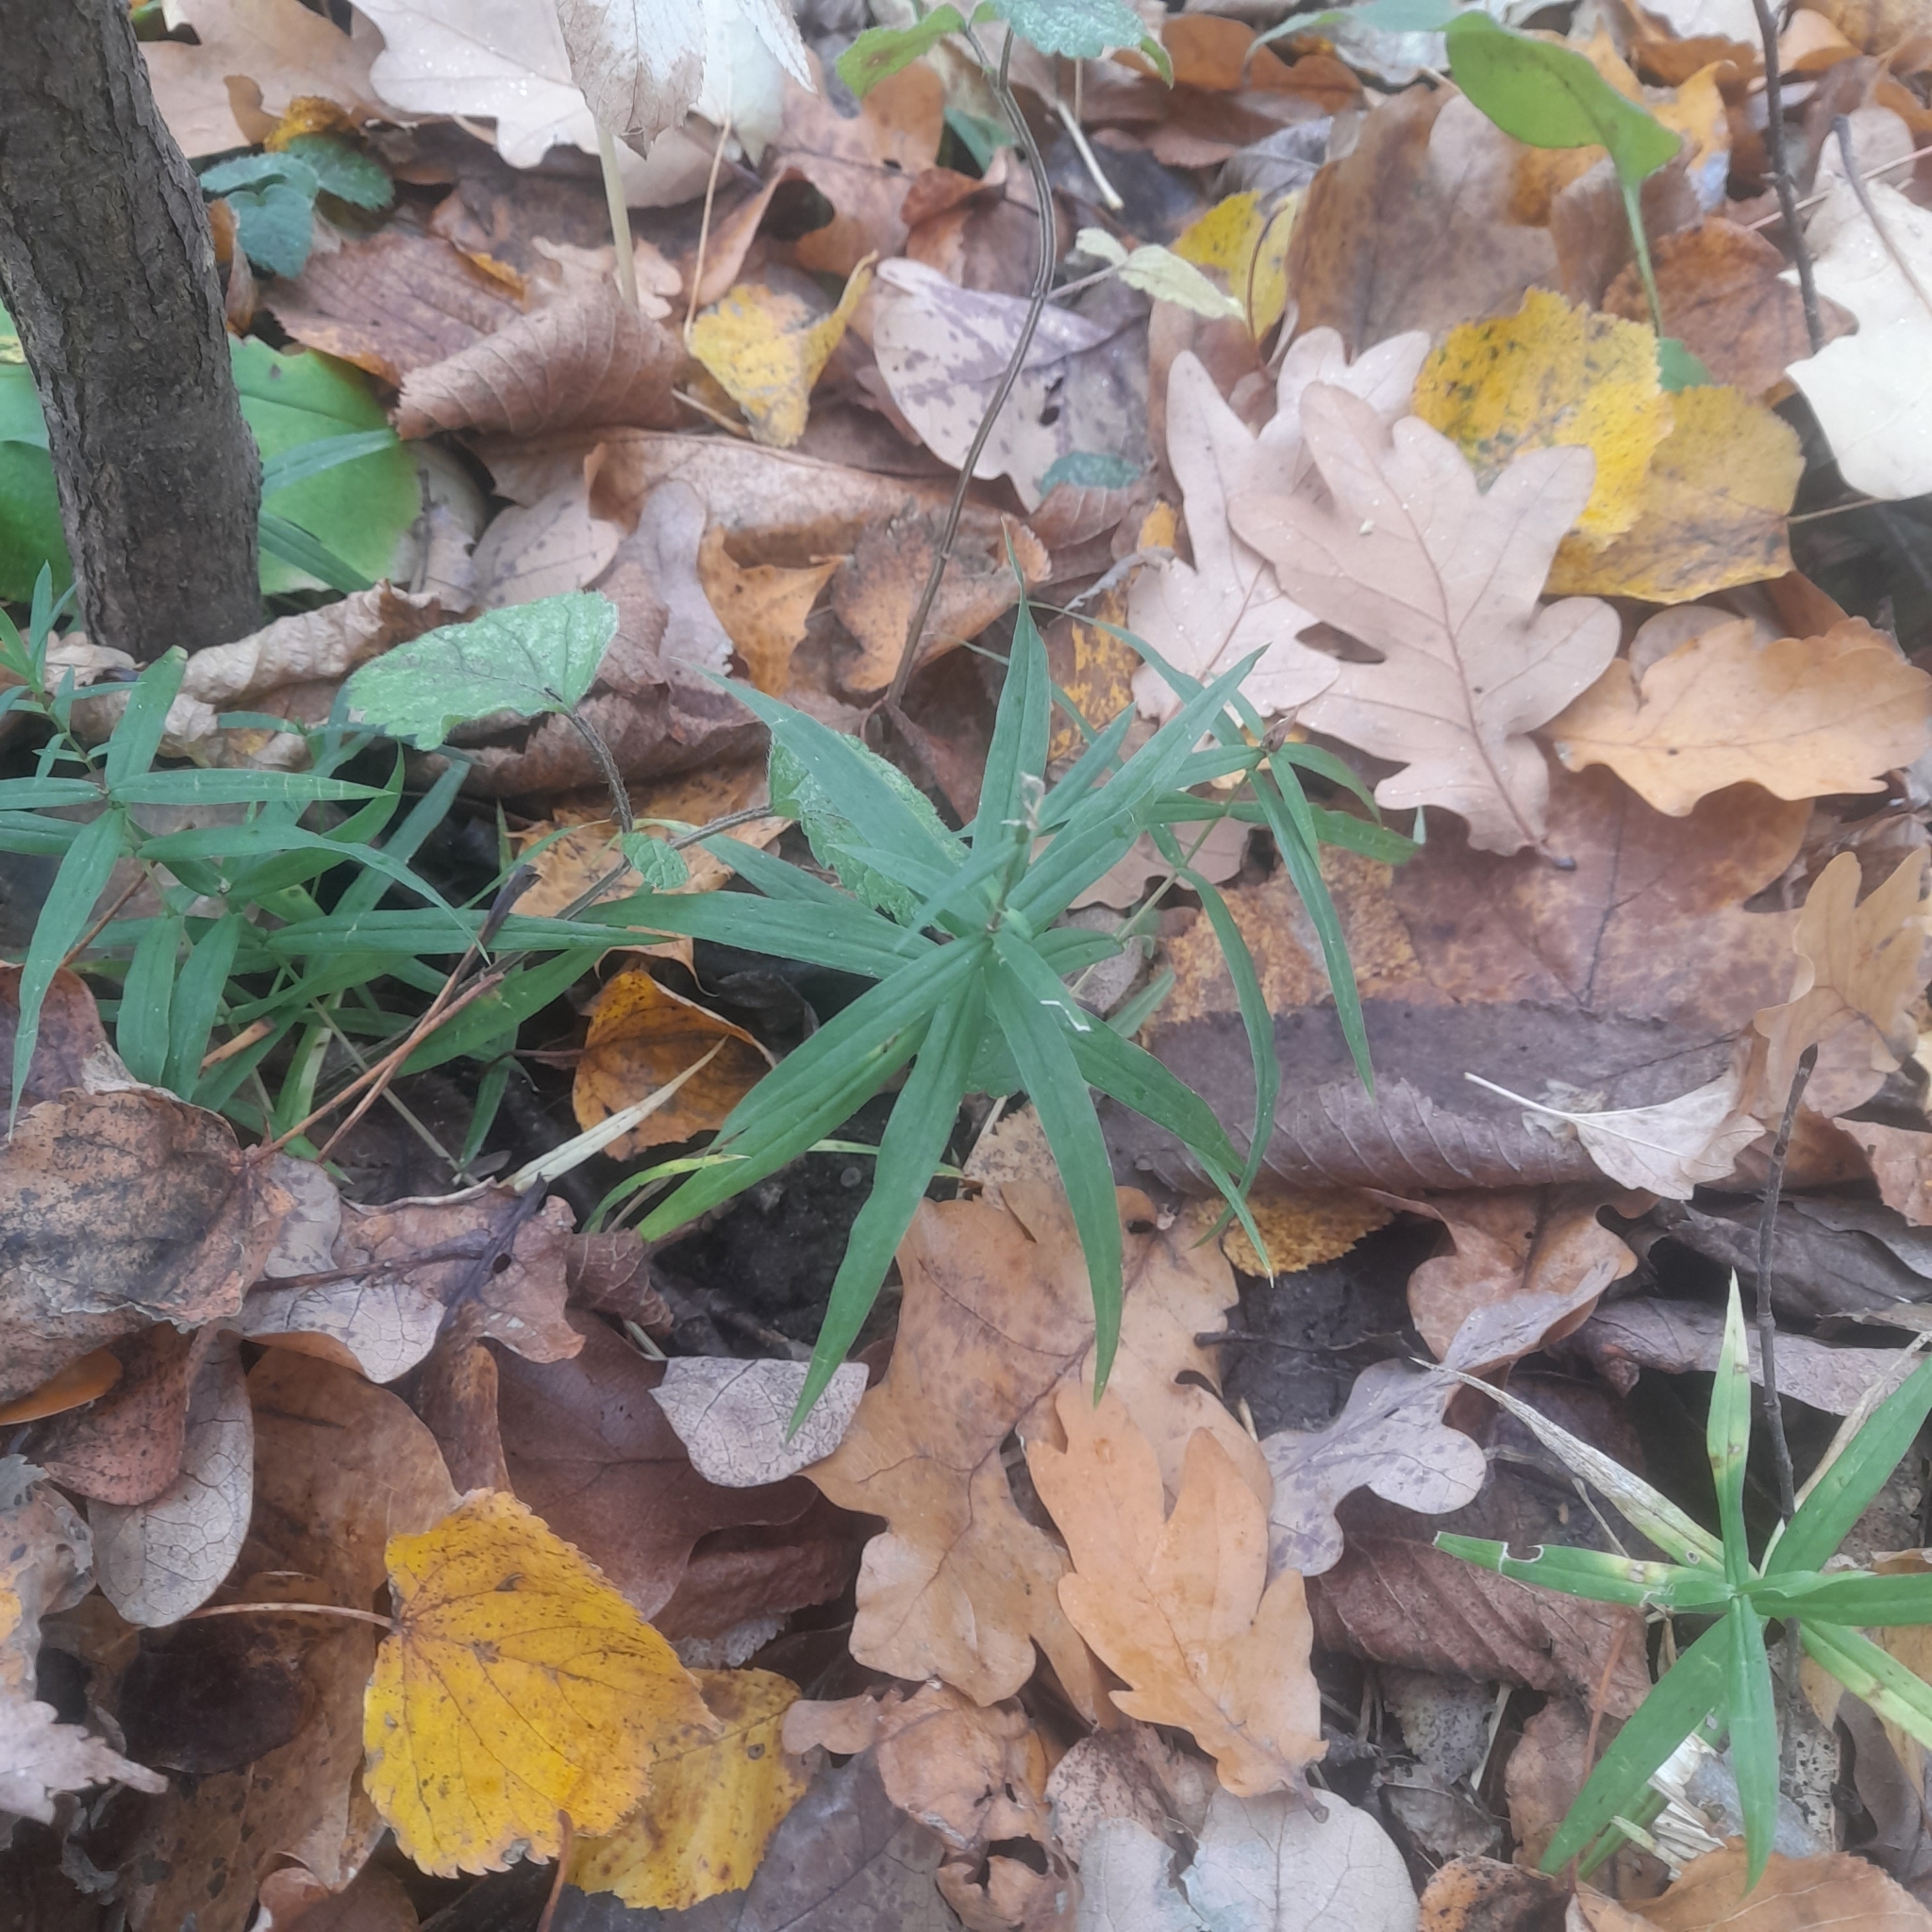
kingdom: Plantae
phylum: Tracheophyta
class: Magnoliopsida
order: Caryophyllales
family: Caryophyllaceae
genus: Rabelera
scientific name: Rabelera holostea
